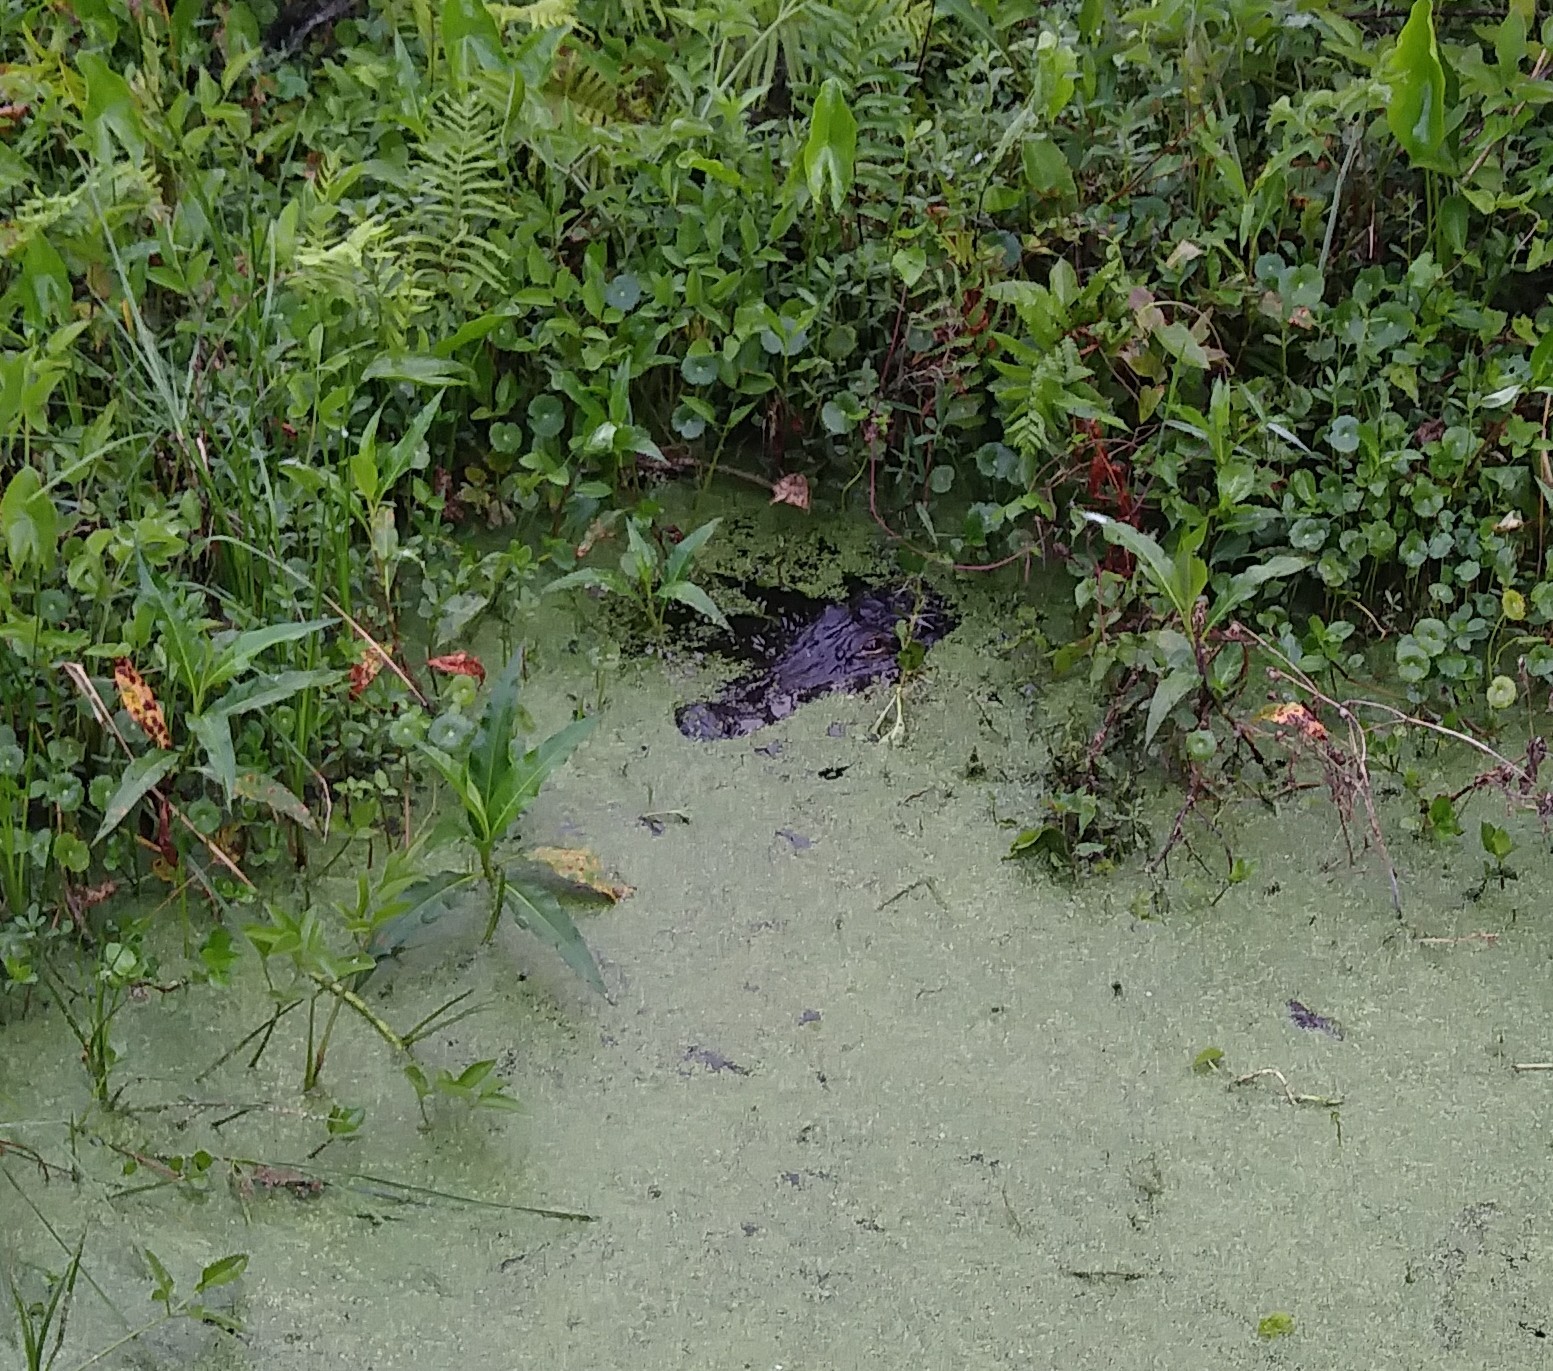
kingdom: Animalia
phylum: Chordata
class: Crocodylia
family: Alligatoridae
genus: Alligator
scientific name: Alligator mississippiensis
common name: American alligator
